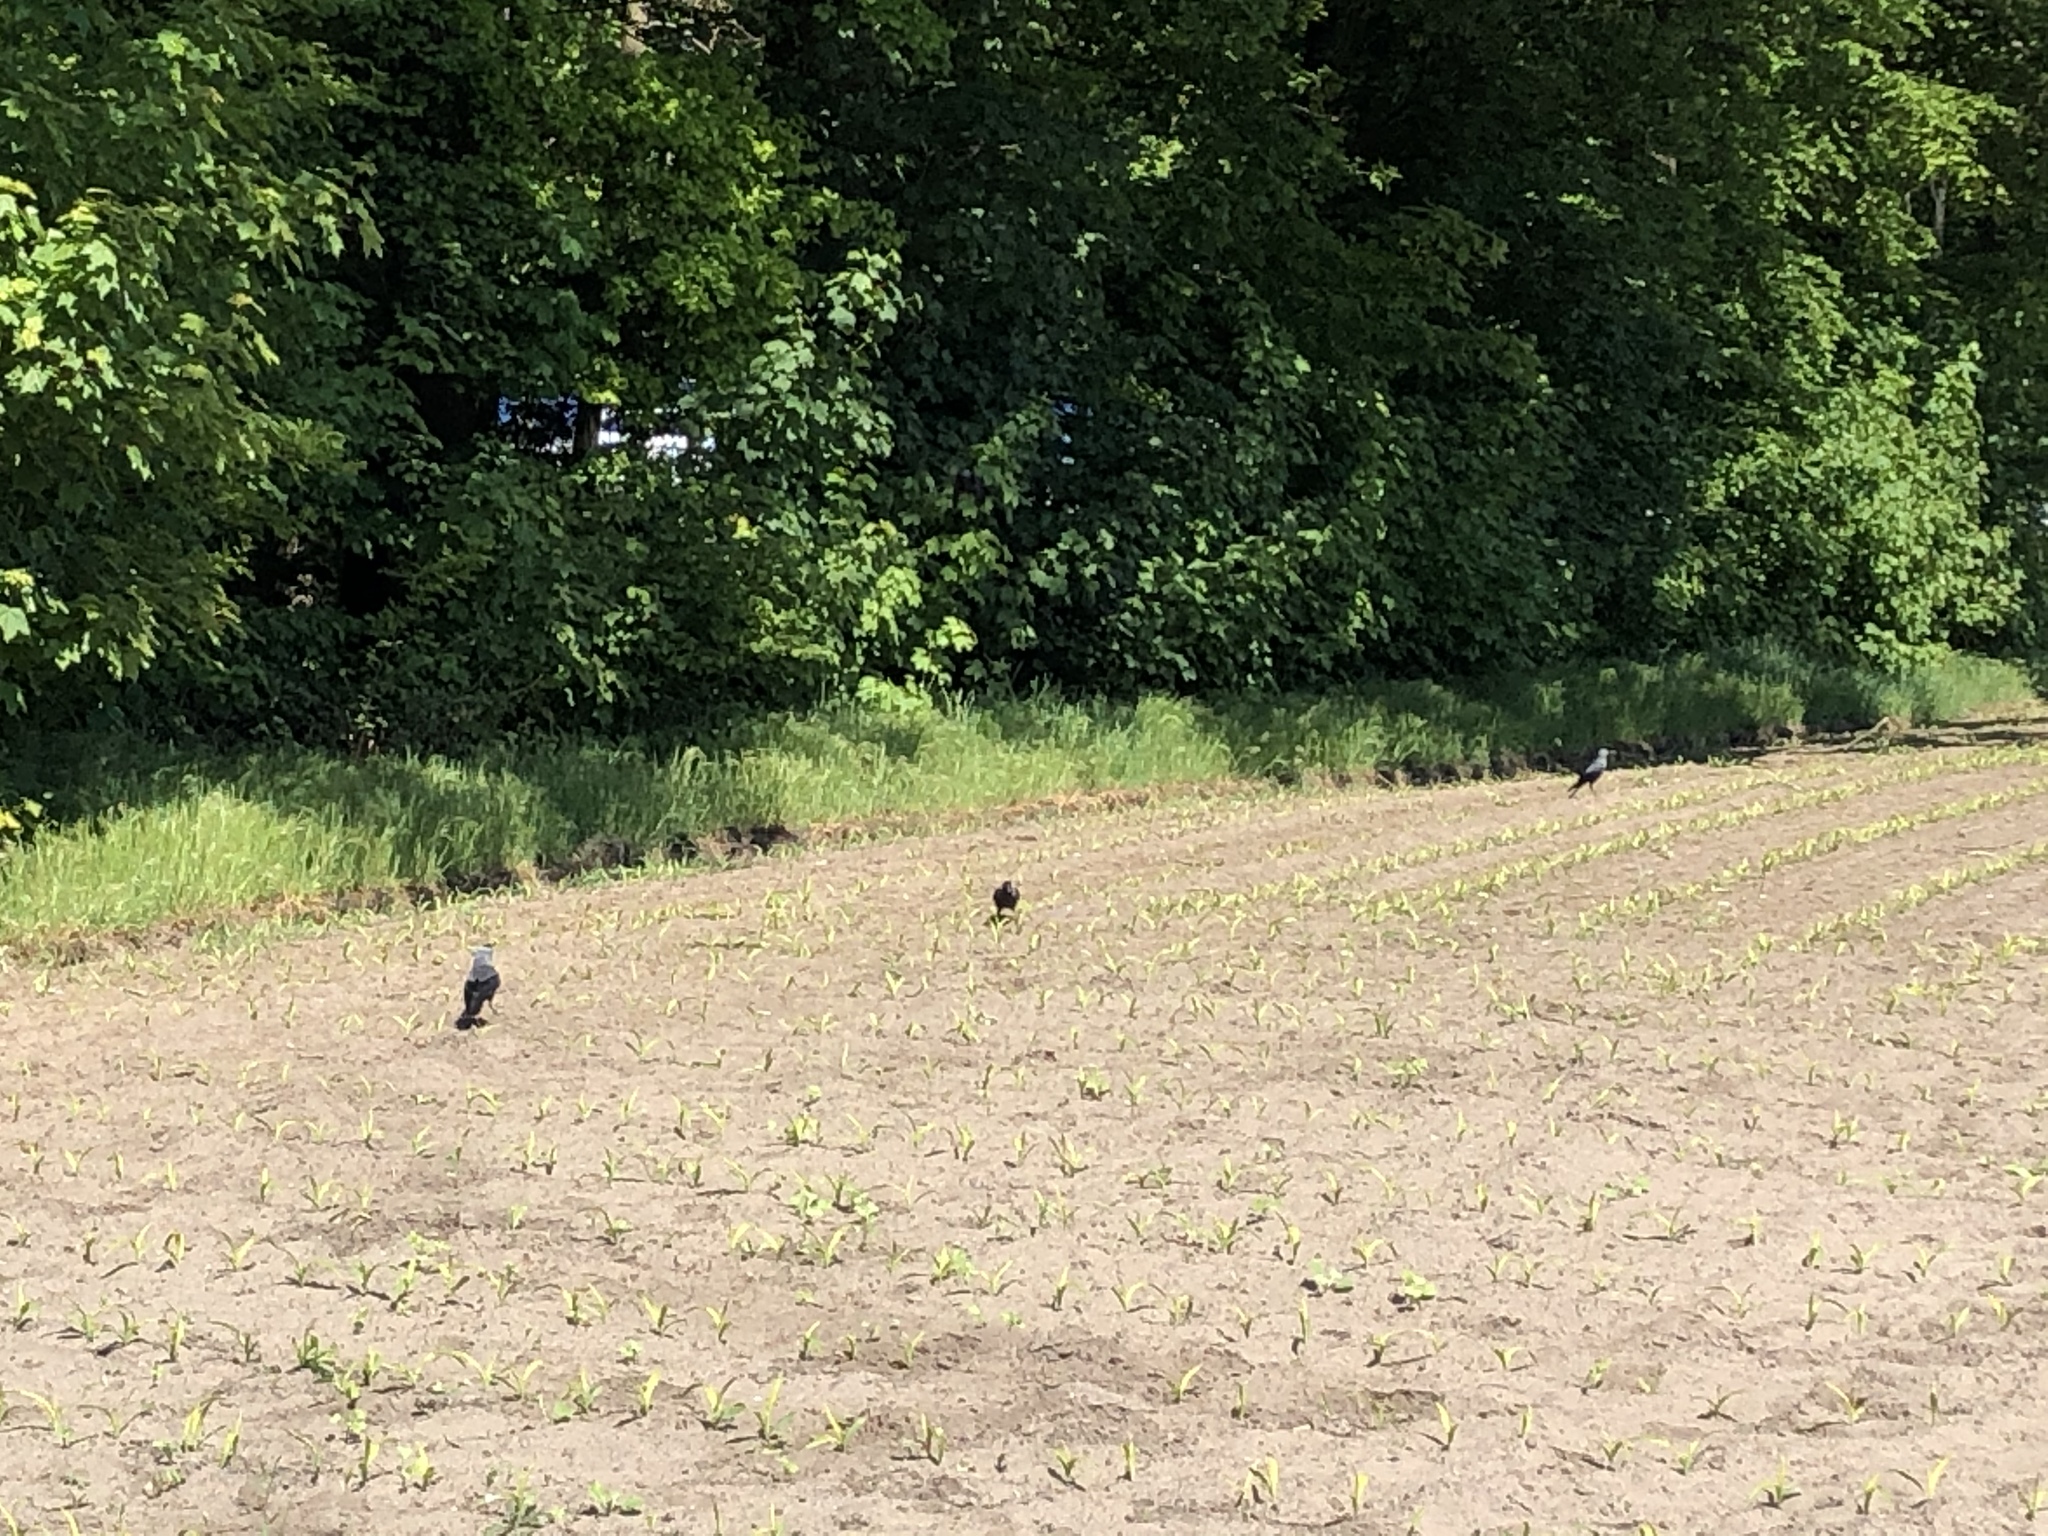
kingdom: Animalia
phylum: Chordata
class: Aves
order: Passeriformes
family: Corvidae
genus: Coloeus
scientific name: Coloeus monedula
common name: Western jackdaw
